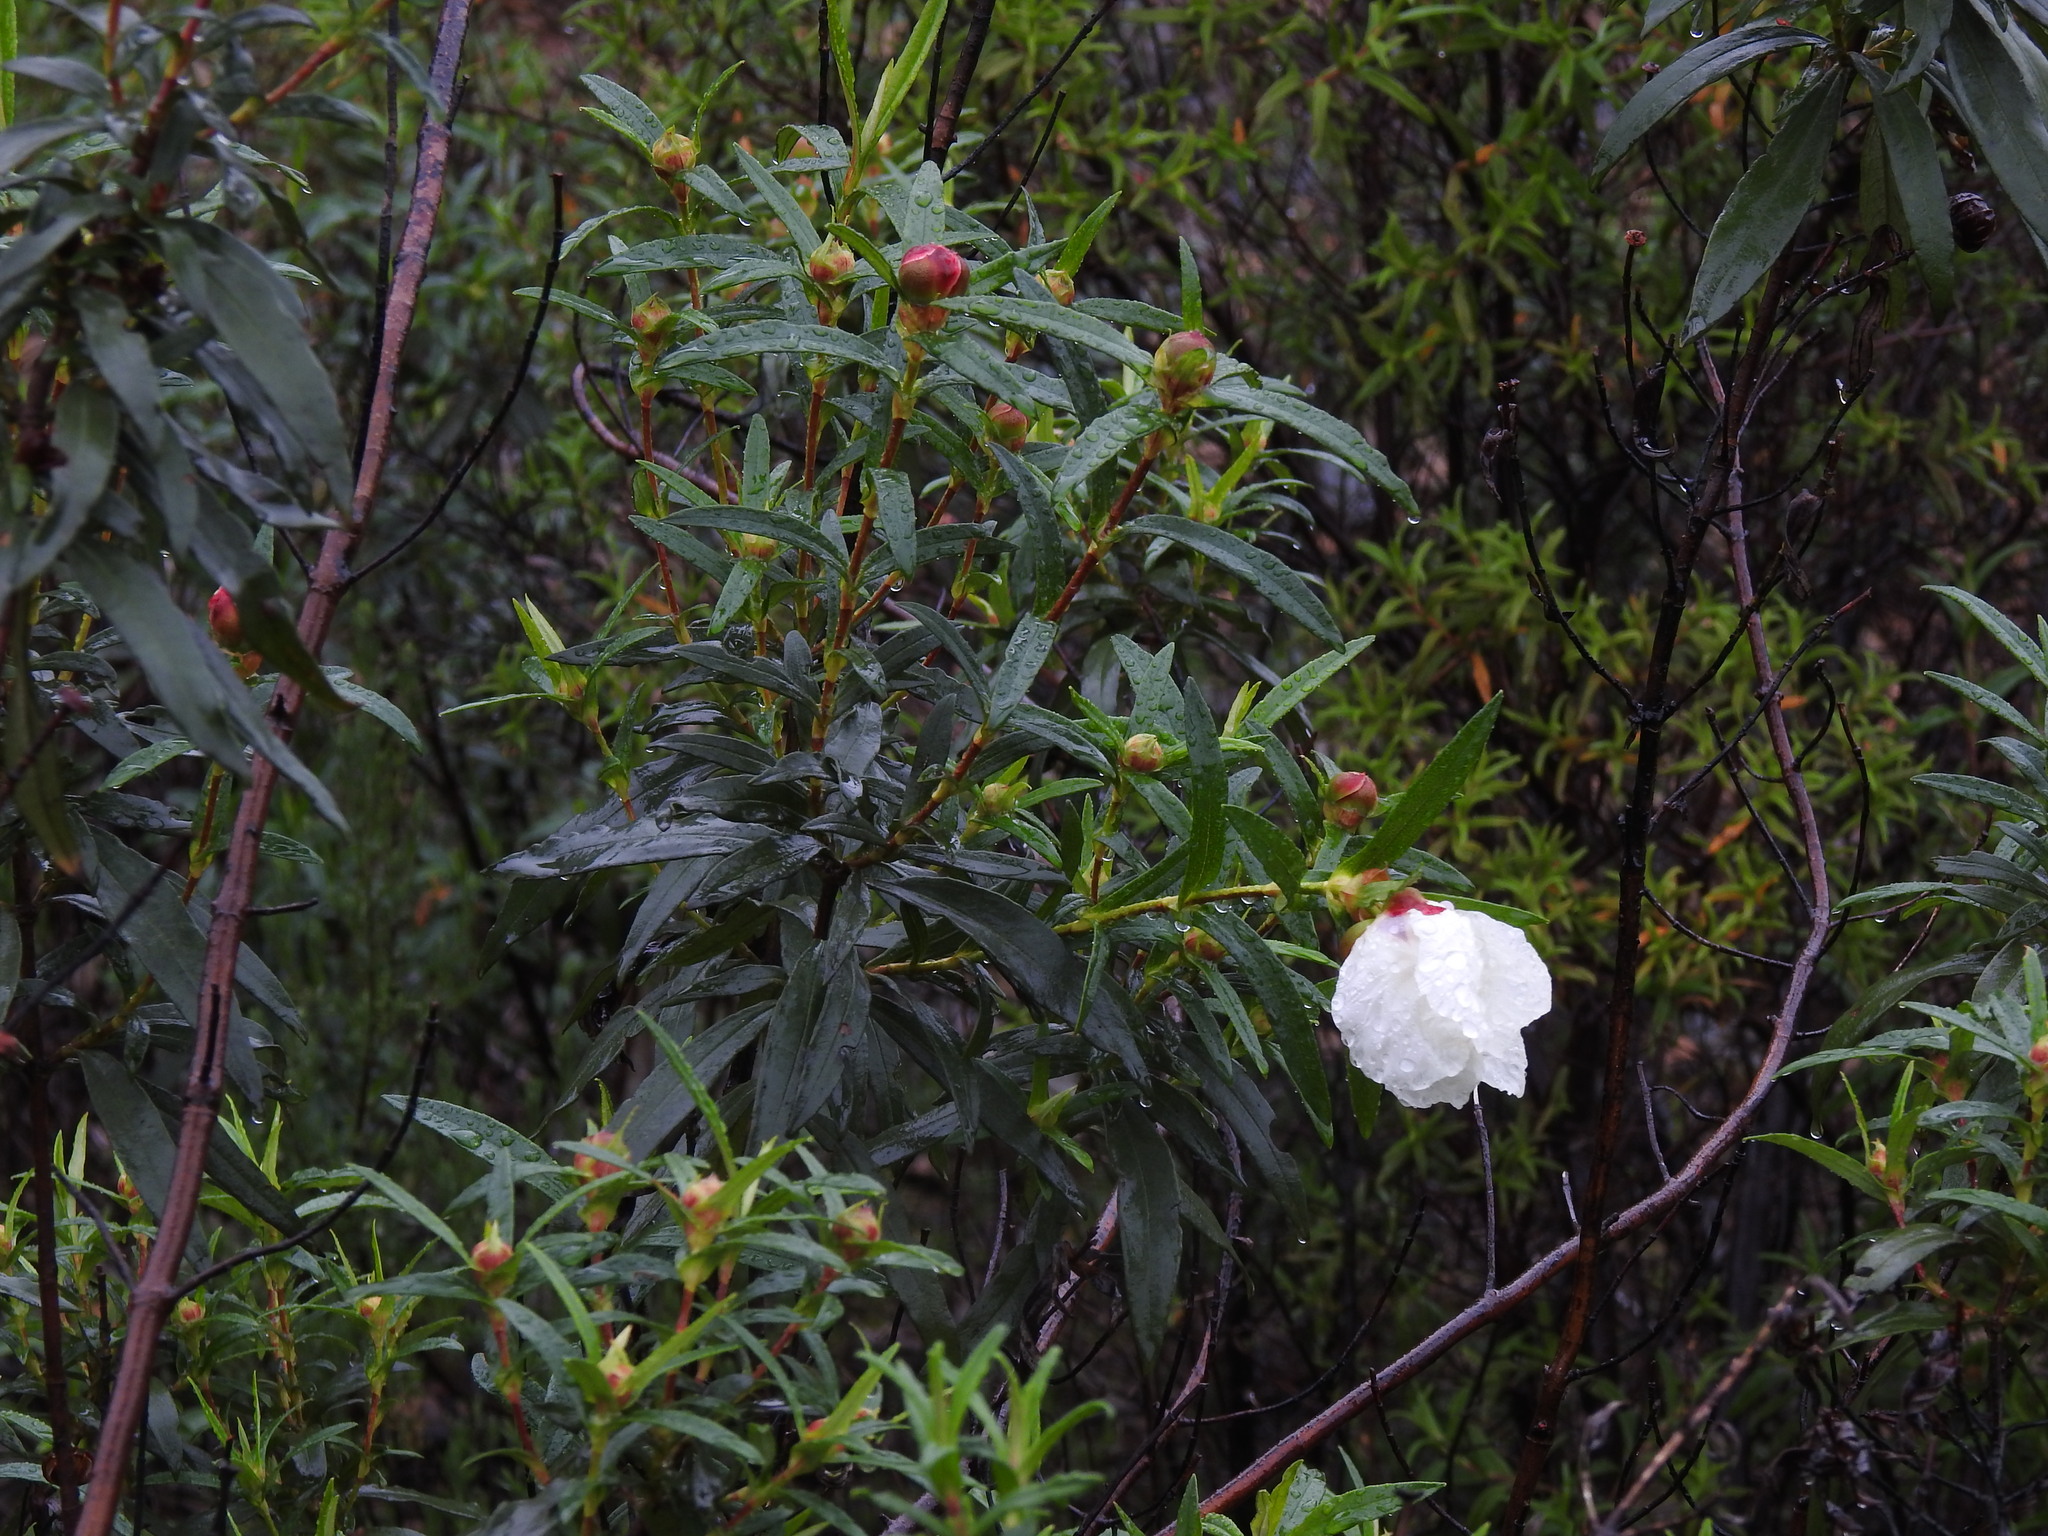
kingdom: Plantae
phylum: Tracheophyta
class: Magnoliopsida
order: Malvales
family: Cistaceae
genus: Cistus
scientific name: Cistus ladanifer
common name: Common gum cistus
